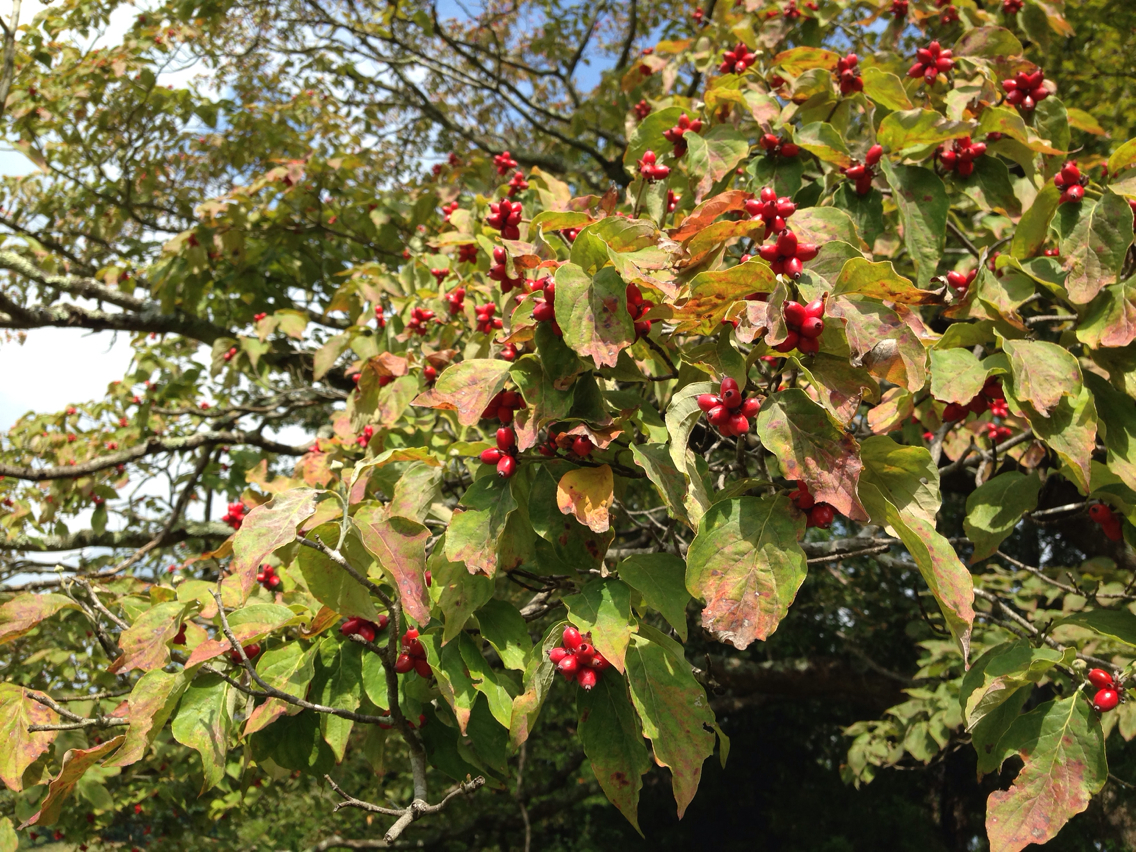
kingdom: Plantae
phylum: Tracheophyta
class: Magnoliopsida
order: Cornales
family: Cornaceae
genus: Cornus
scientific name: Cornus florida
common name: Flowering dogwood
